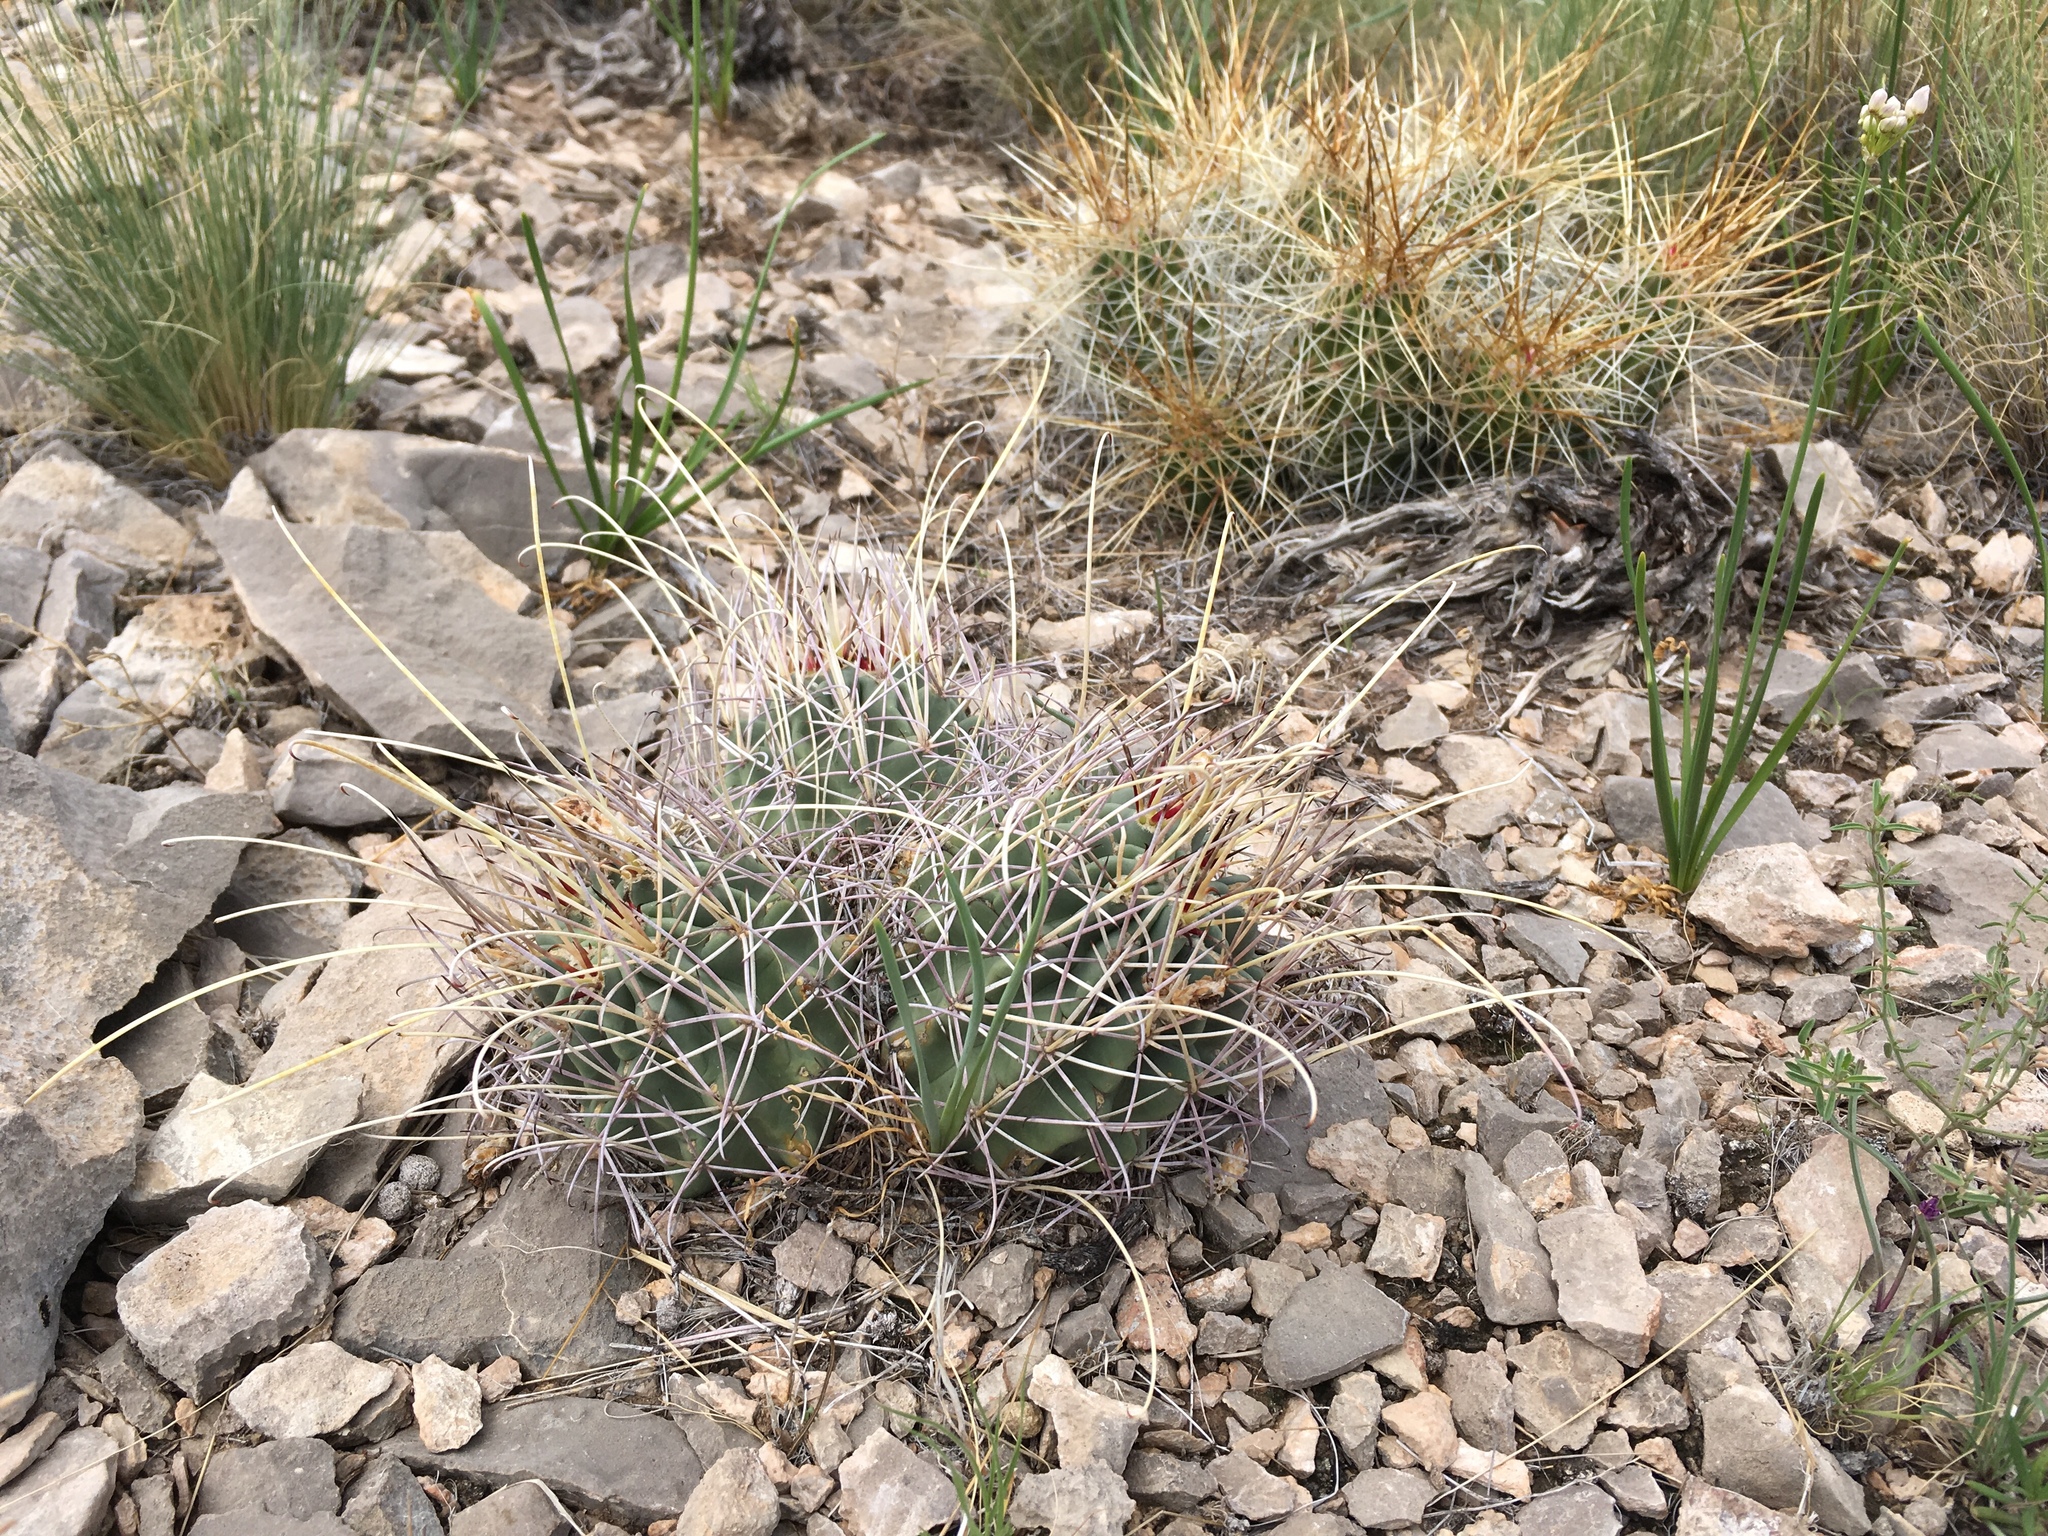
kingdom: Plantae
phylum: Tracheophyta
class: Magnoliopsida
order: Caryophyllales
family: Cactaceae
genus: Ferocactus
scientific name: Ferocactus uncinatus
